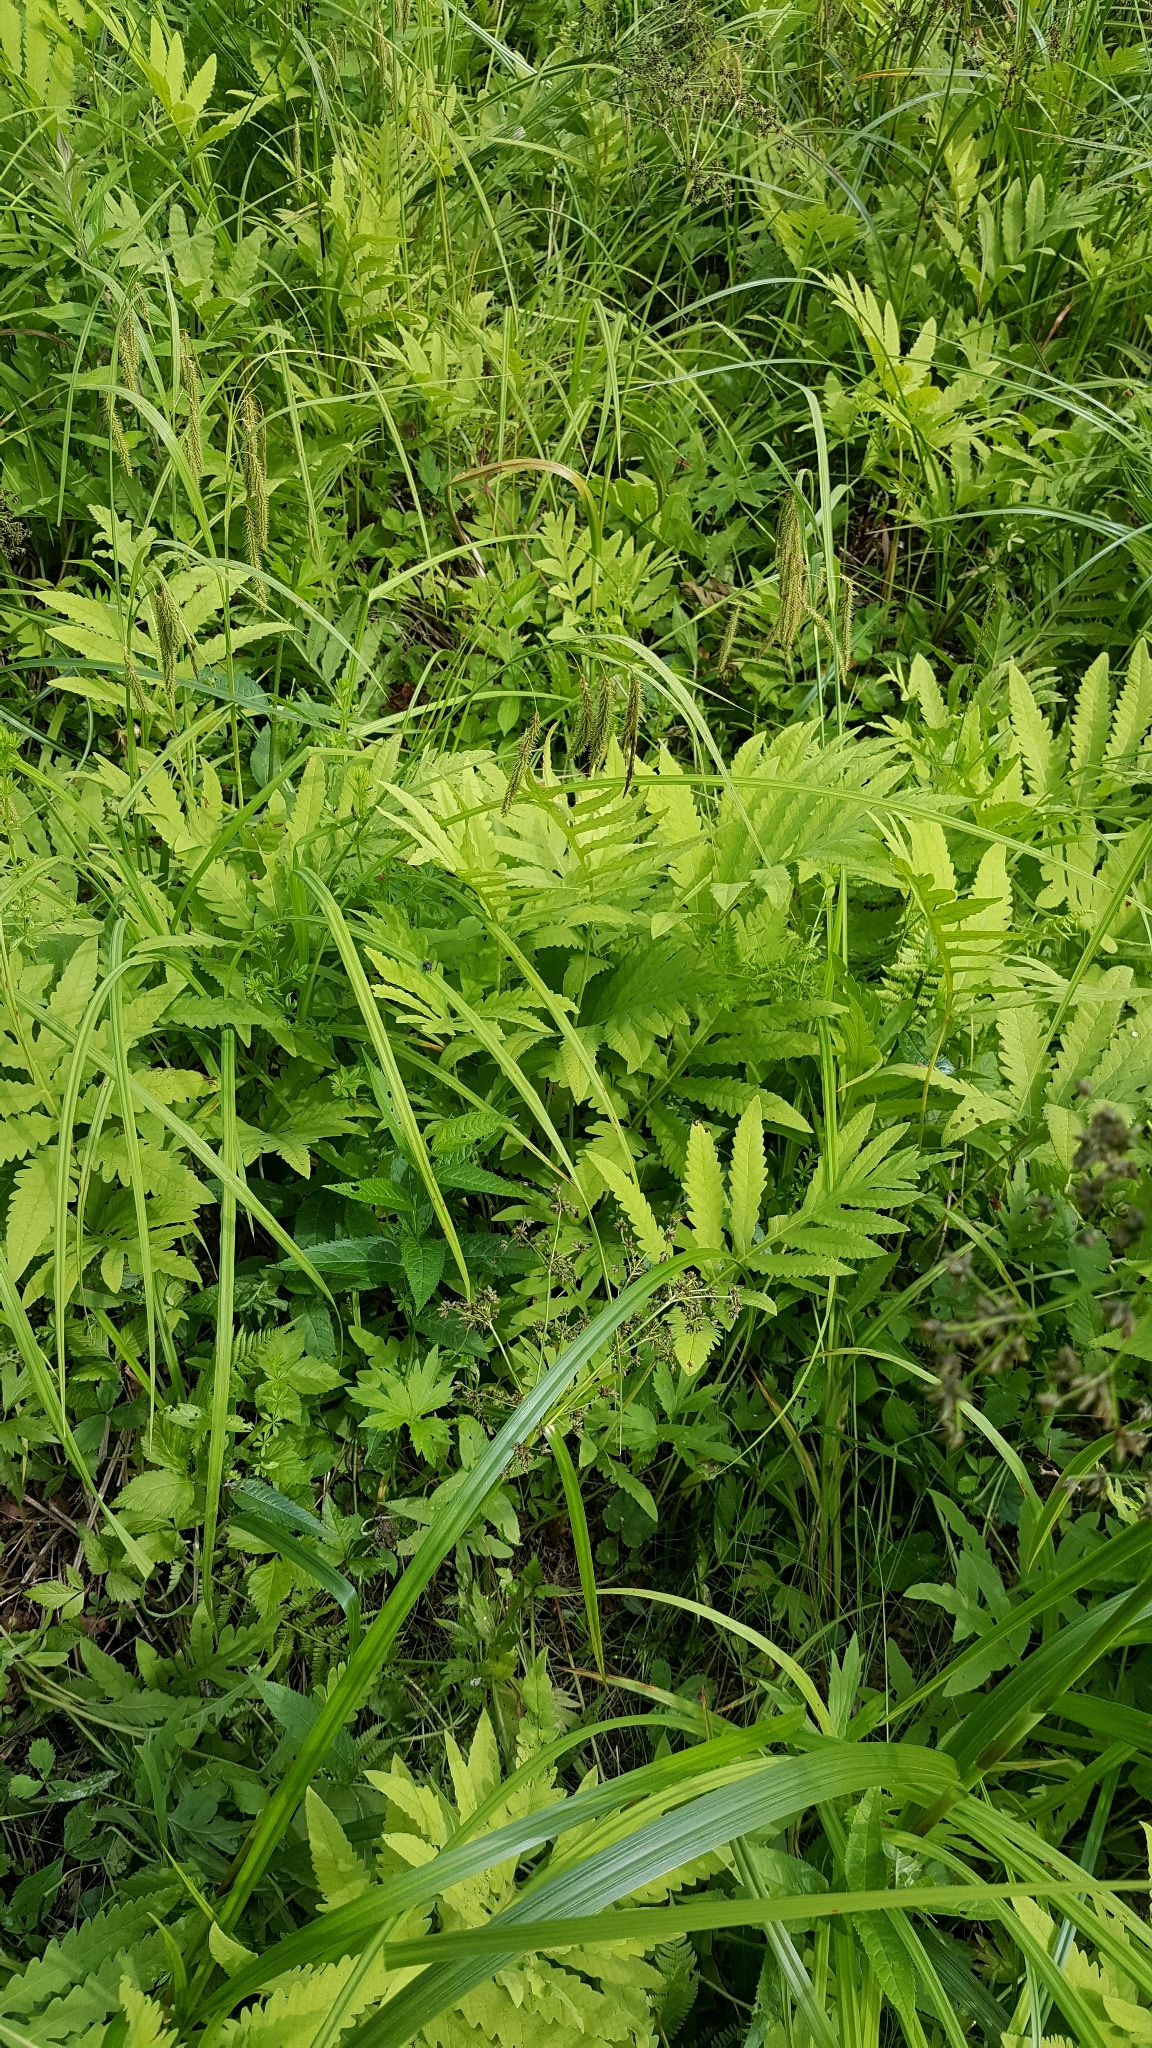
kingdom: Plantae
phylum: Tracheophyta
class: Polypodiopsida
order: Polypodiales
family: Onocleaceae
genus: Onoclea
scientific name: Onoclea sensibilis
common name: Sensitive fern
